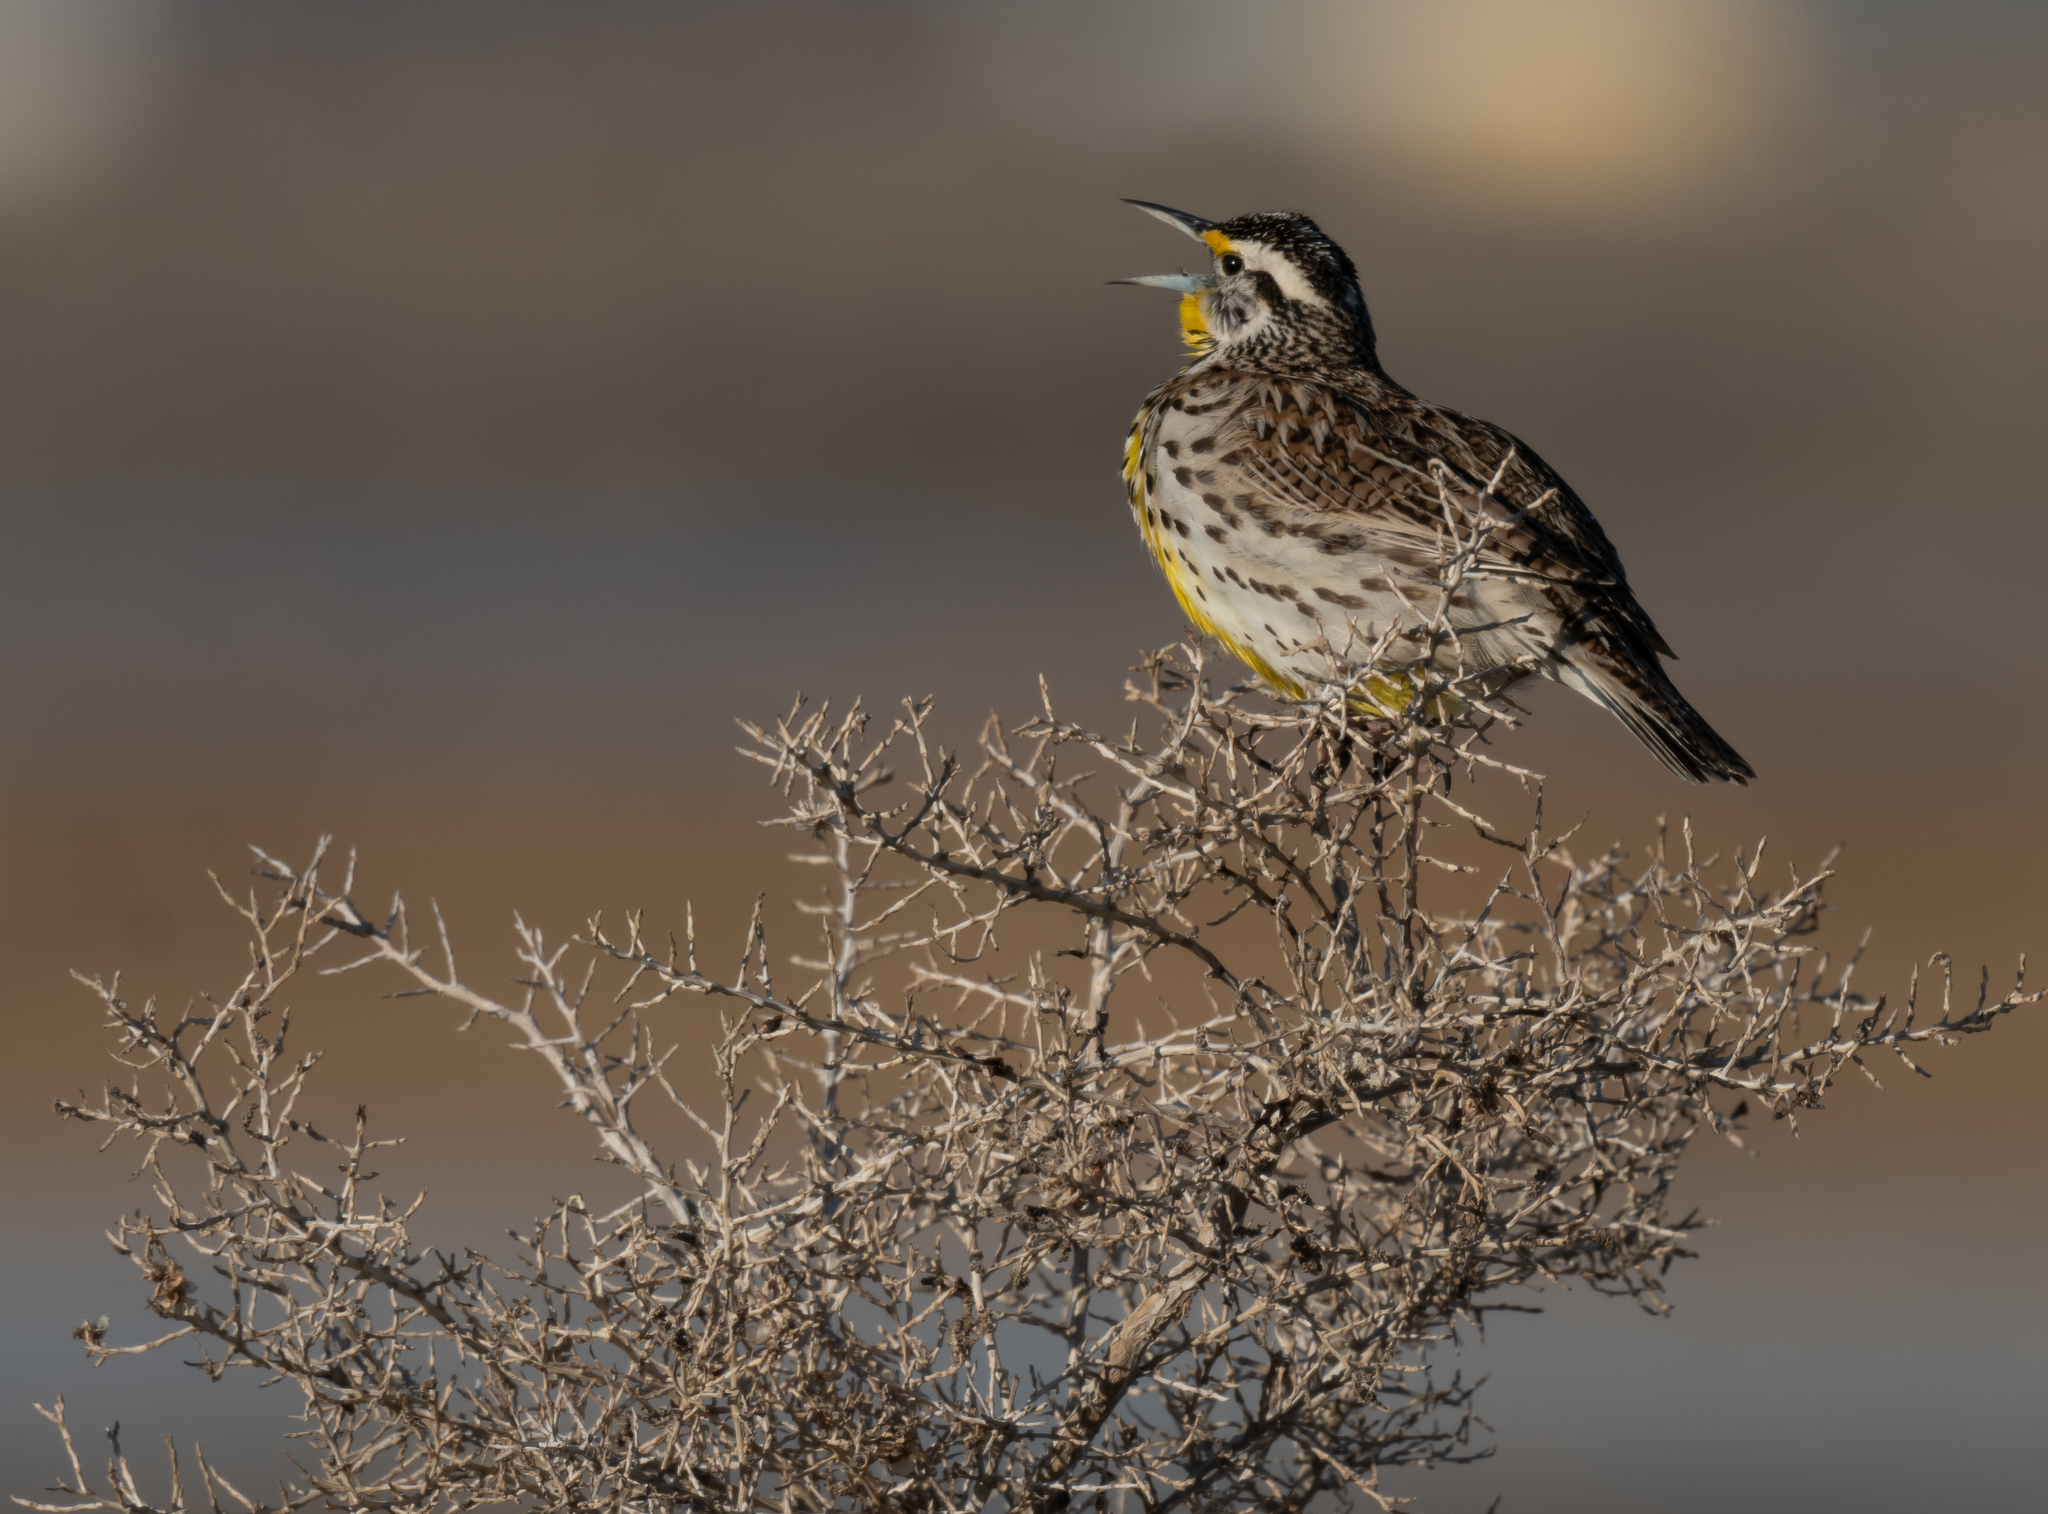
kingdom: Animalia
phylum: Chordata
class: Aves
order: Passeriformes
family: Icteridae
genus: Sturnella
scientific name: Sturnella neglecta
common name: Western meadowlark
